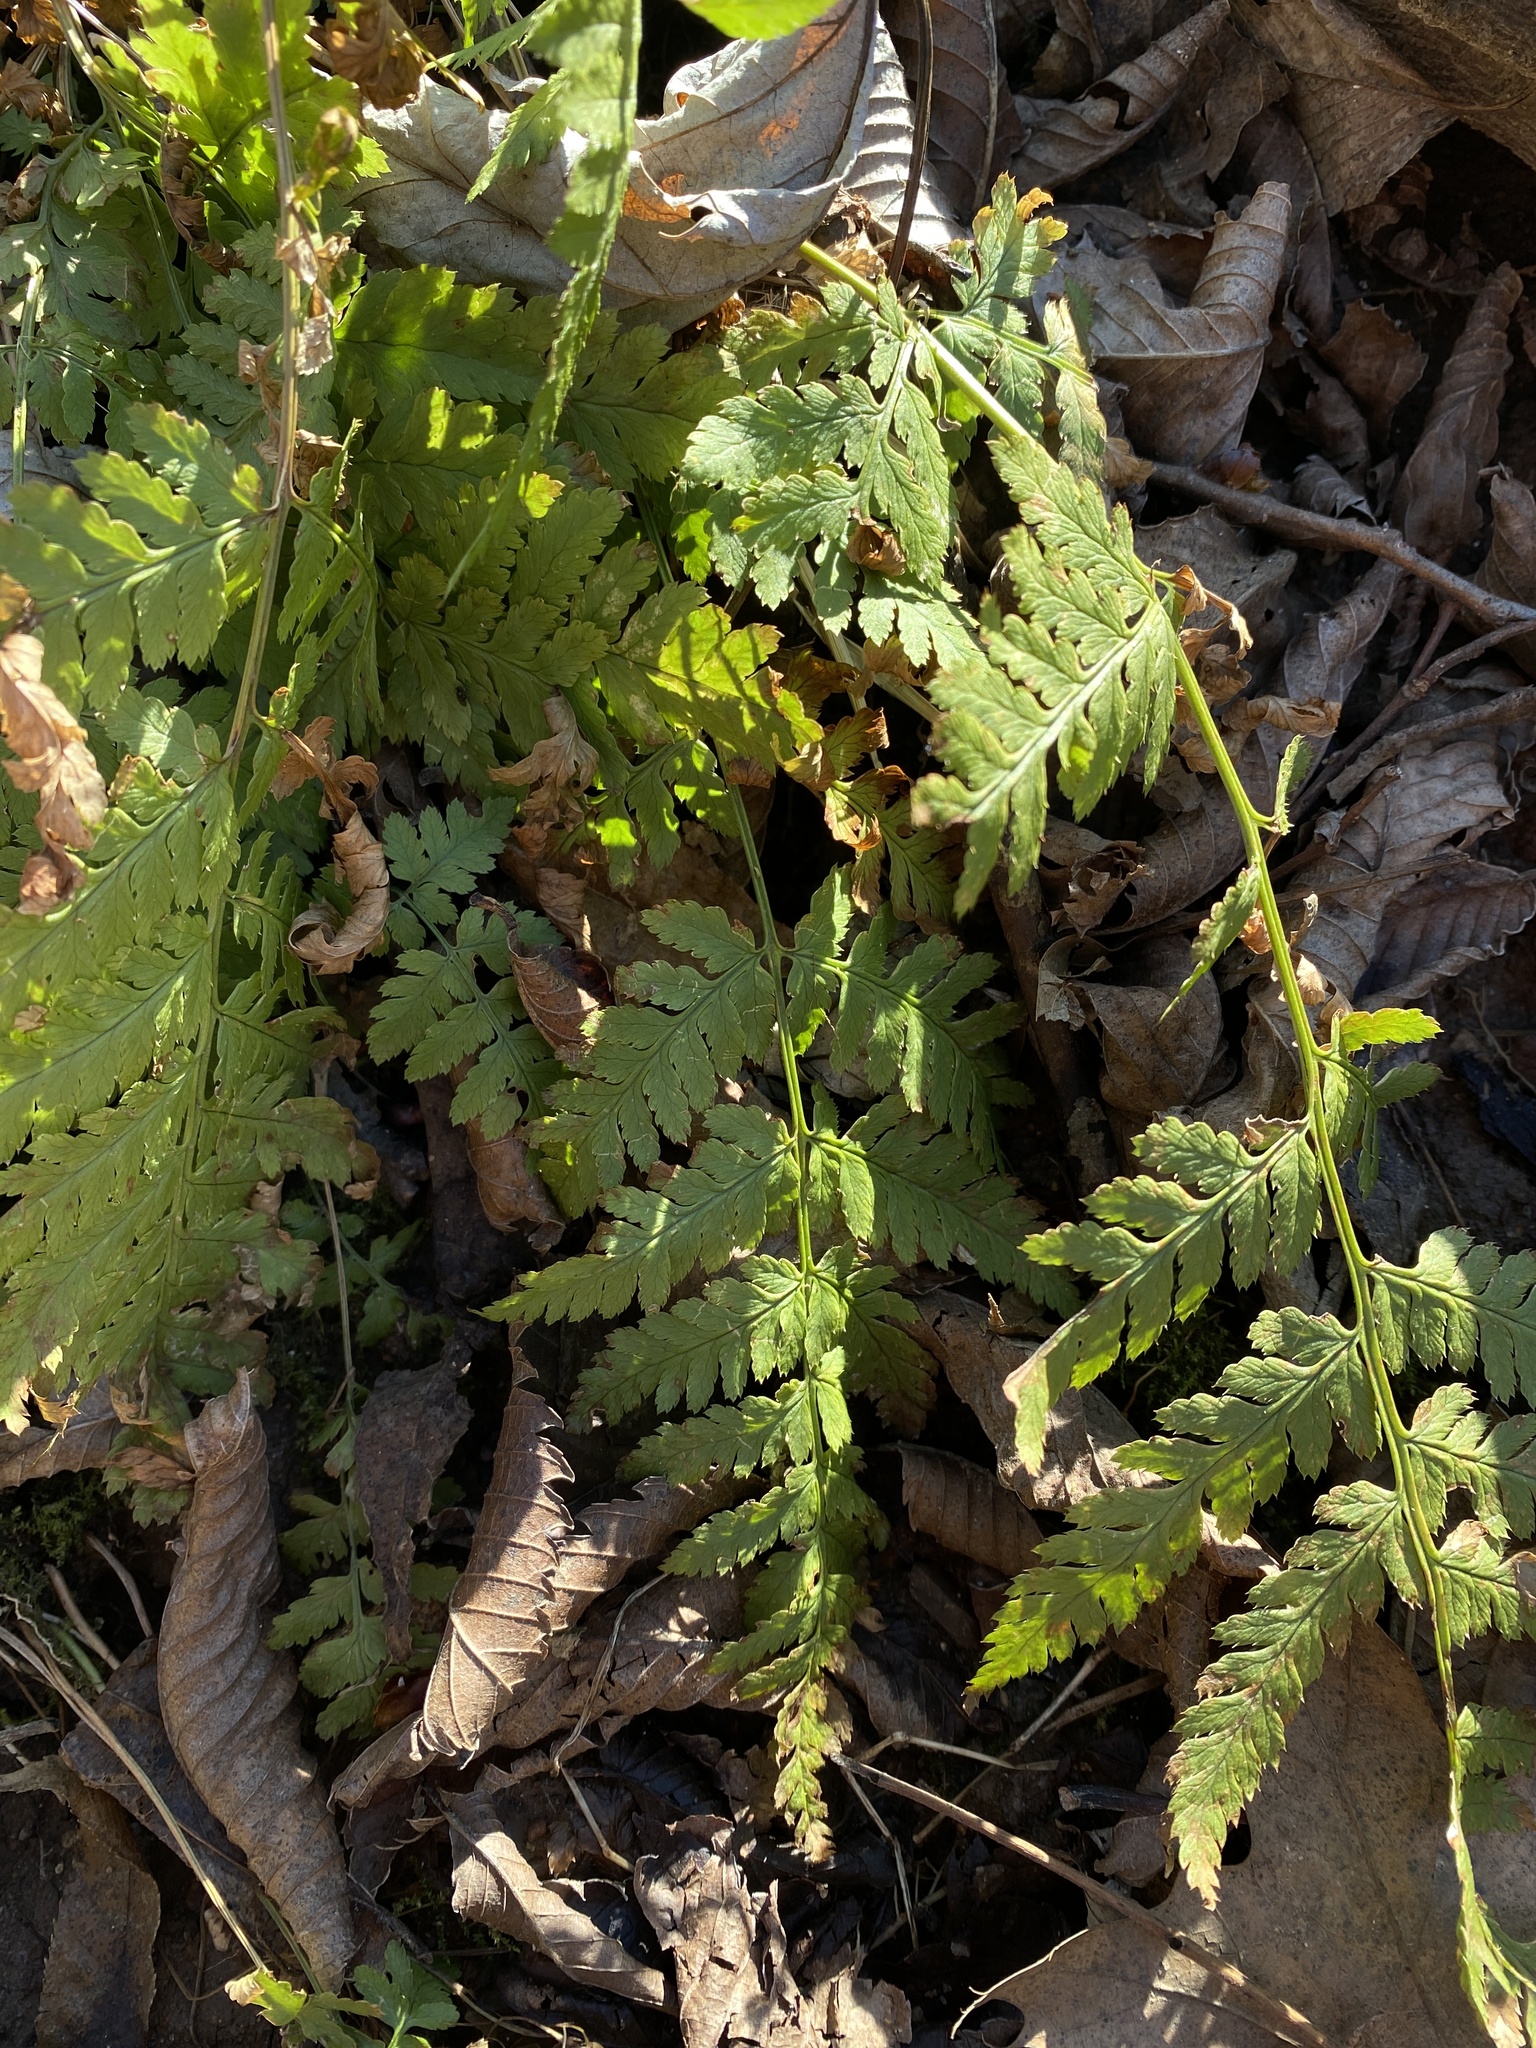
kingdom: Plantae
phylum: Tracheophyta
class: Polypodiopsida
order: Polypodiales
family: Dryopteridaceae
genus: Dryopteris
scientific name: Dryopteris carthusiana
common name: Narrow buckler-fern
